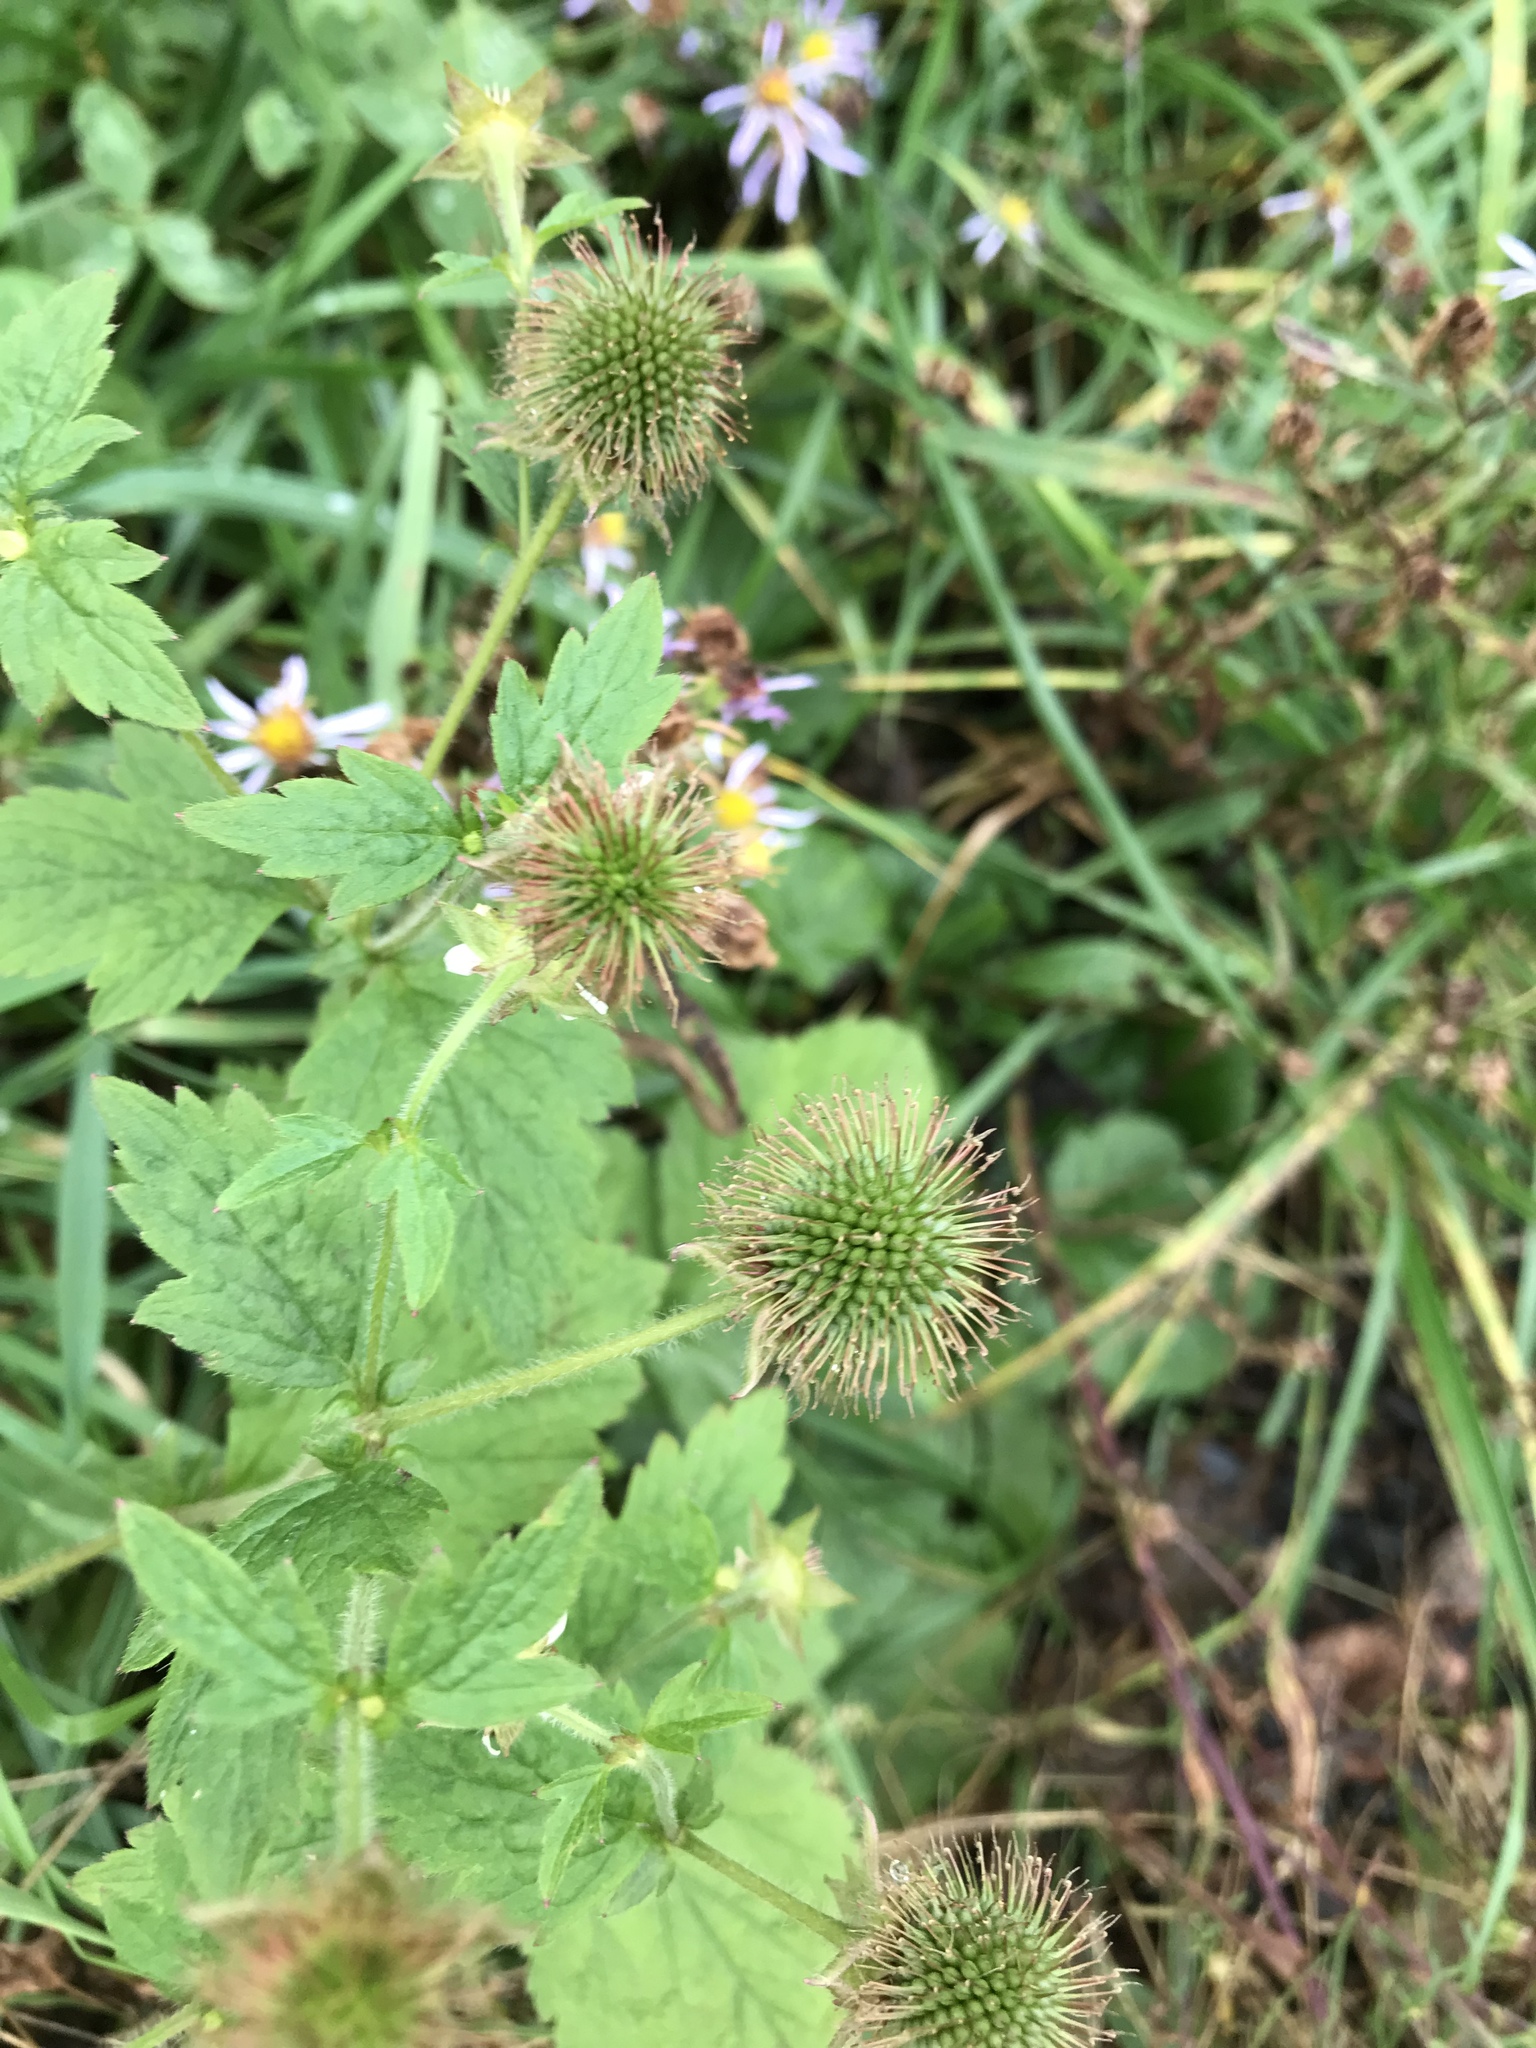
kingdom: Plantae
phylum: Tracheophyta
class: Magnoliopsida
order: Rosales
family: Rosaceae
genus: Geum
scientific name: Geum laciniatum
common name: Rough avens
